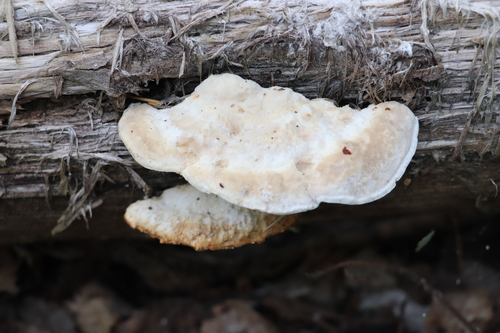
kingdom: Fungi
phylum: Basidiomycota
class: Agaricomycetes
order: Polyporales
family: Polyporaceae
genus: Trametes
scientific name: Trametes suaveolens
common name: Fragrant bracket
